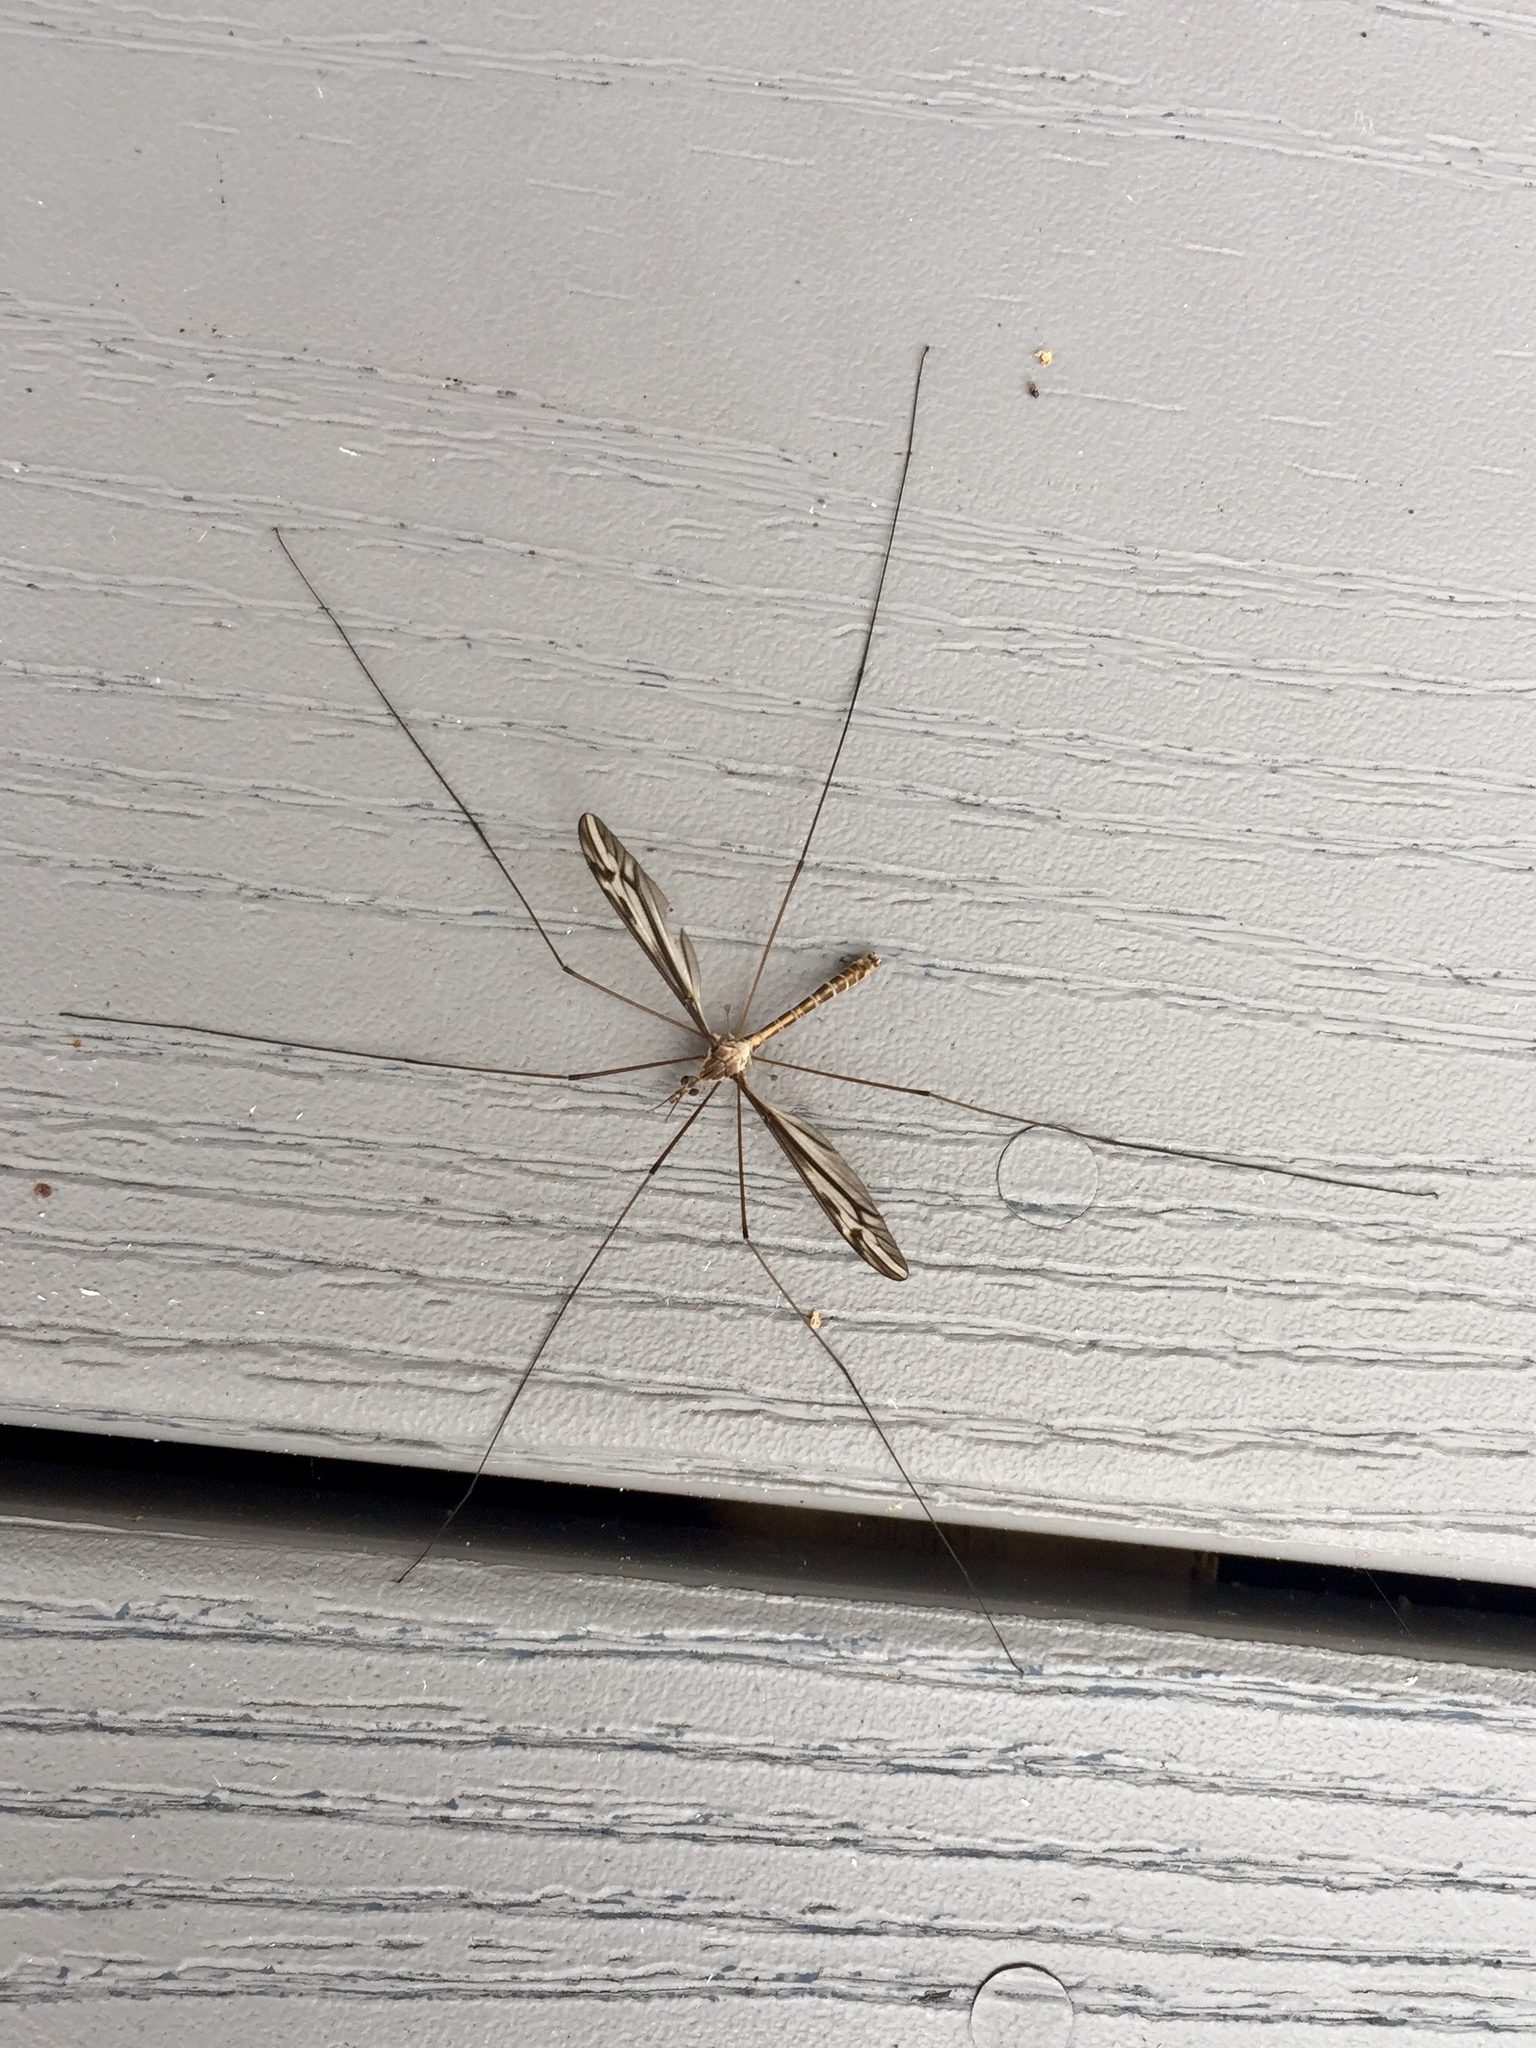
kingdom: Animalia
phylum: Arthropoda
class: Insecta
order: Diptera
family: Tipulidae
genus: Tipula
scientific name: Tipula furca
